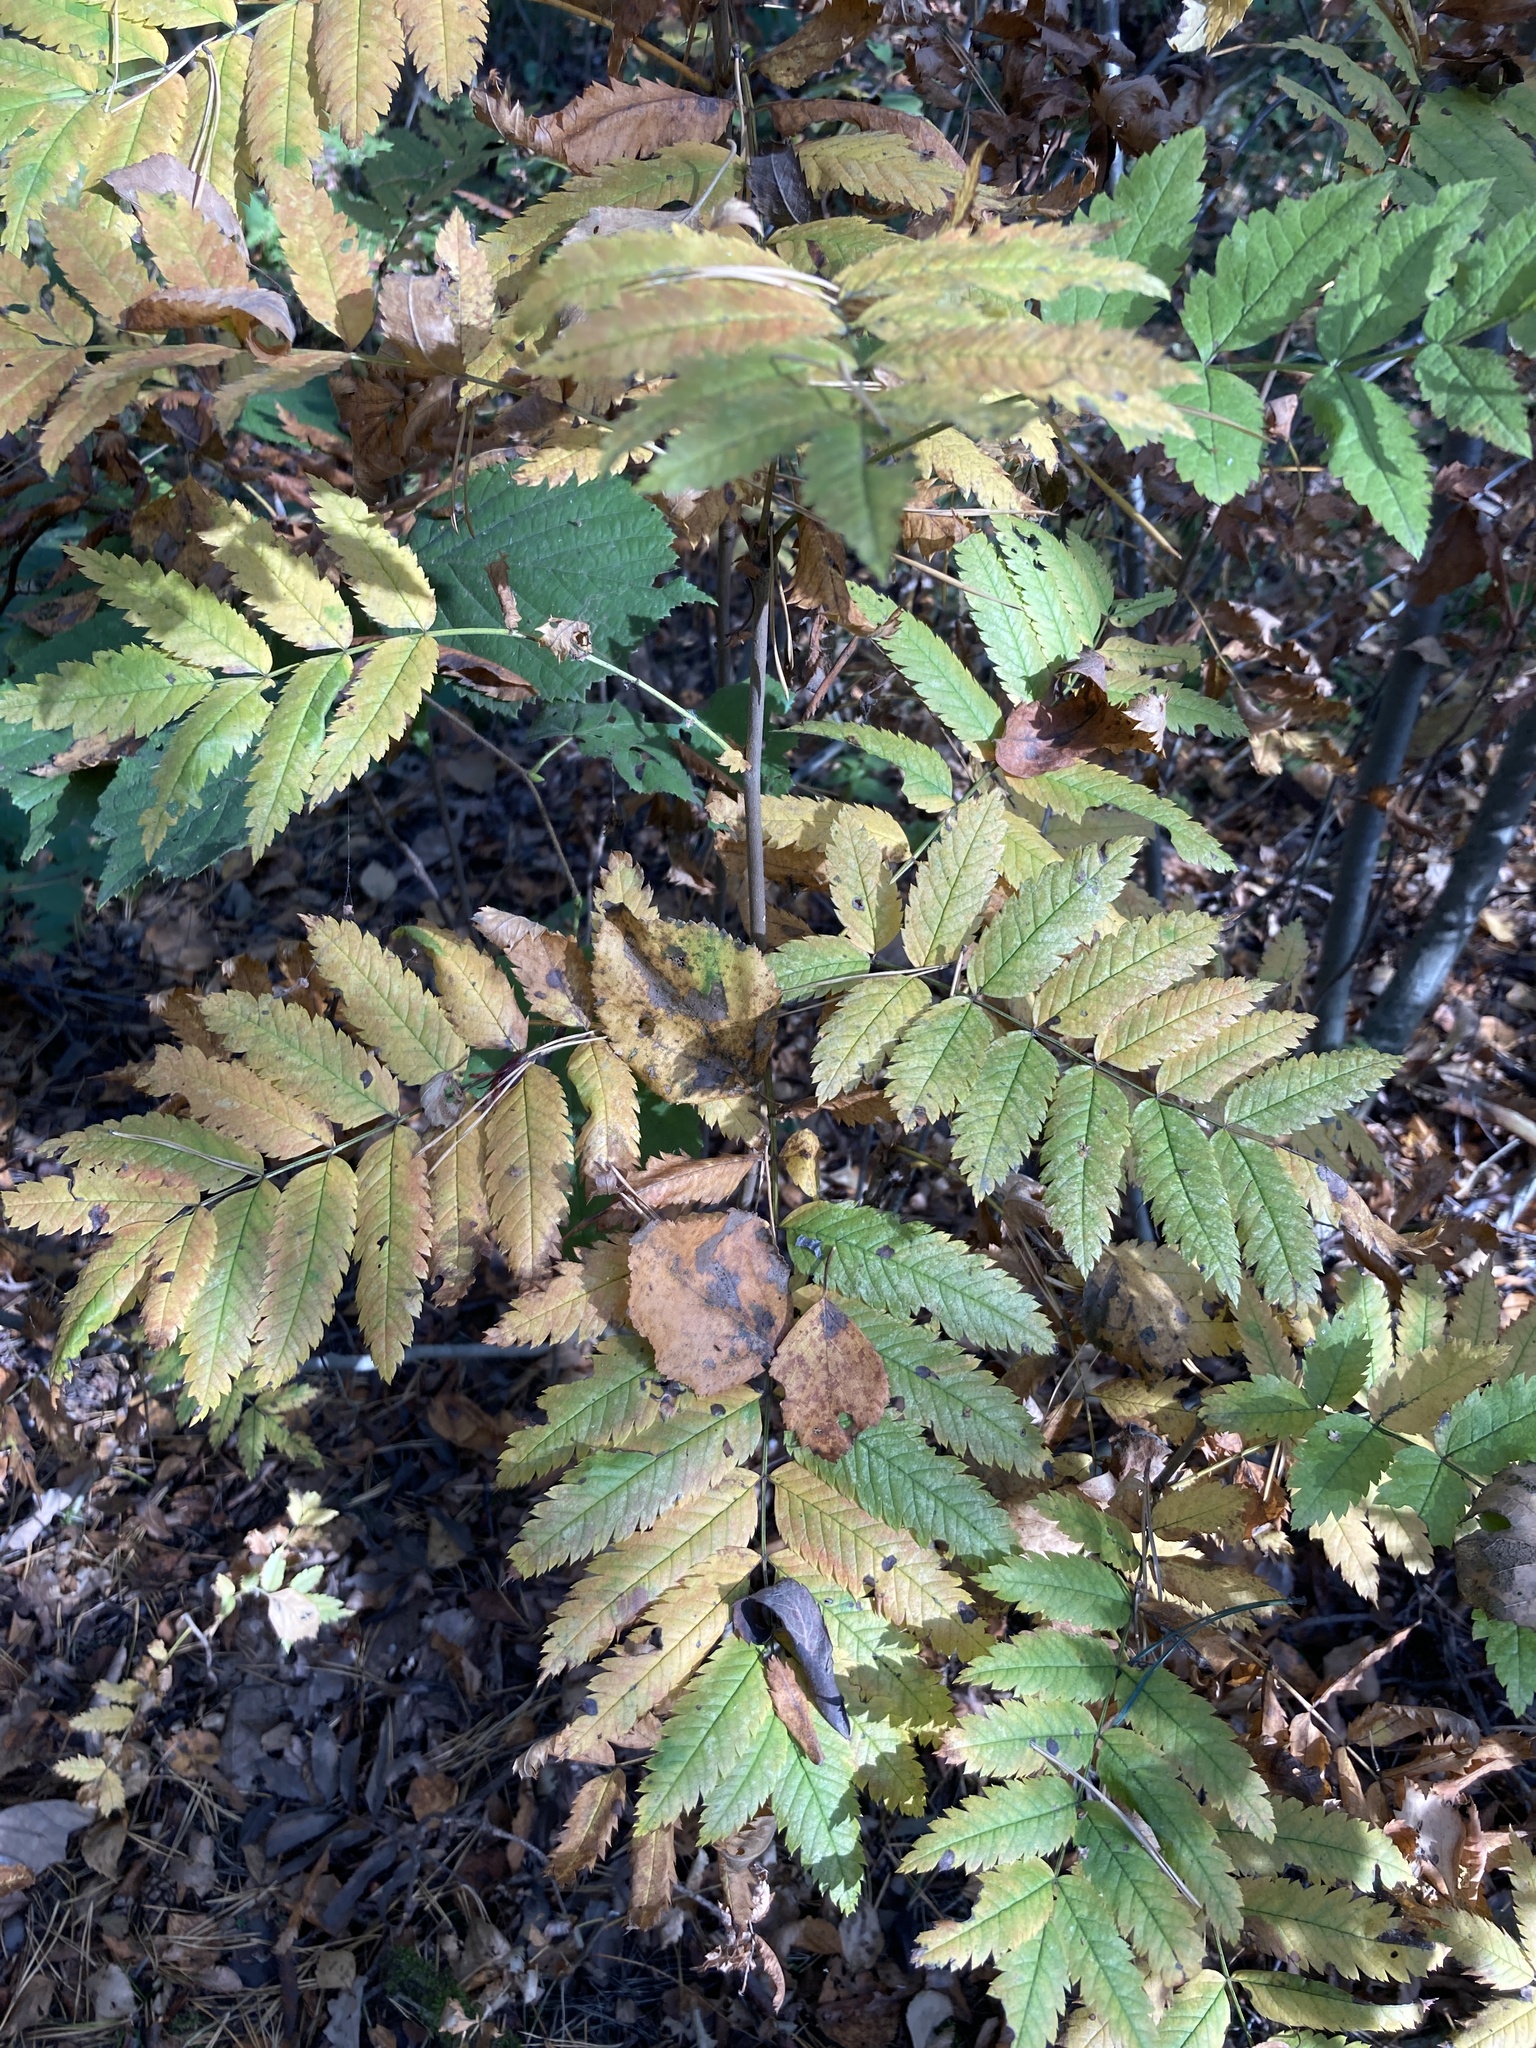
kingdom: Plantae
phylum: Tracheophyta
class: Magnoliopsida
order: Rosales
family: Rosaceae
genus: Sorbus
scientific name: Sorbus aucuparia
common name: Rowan
